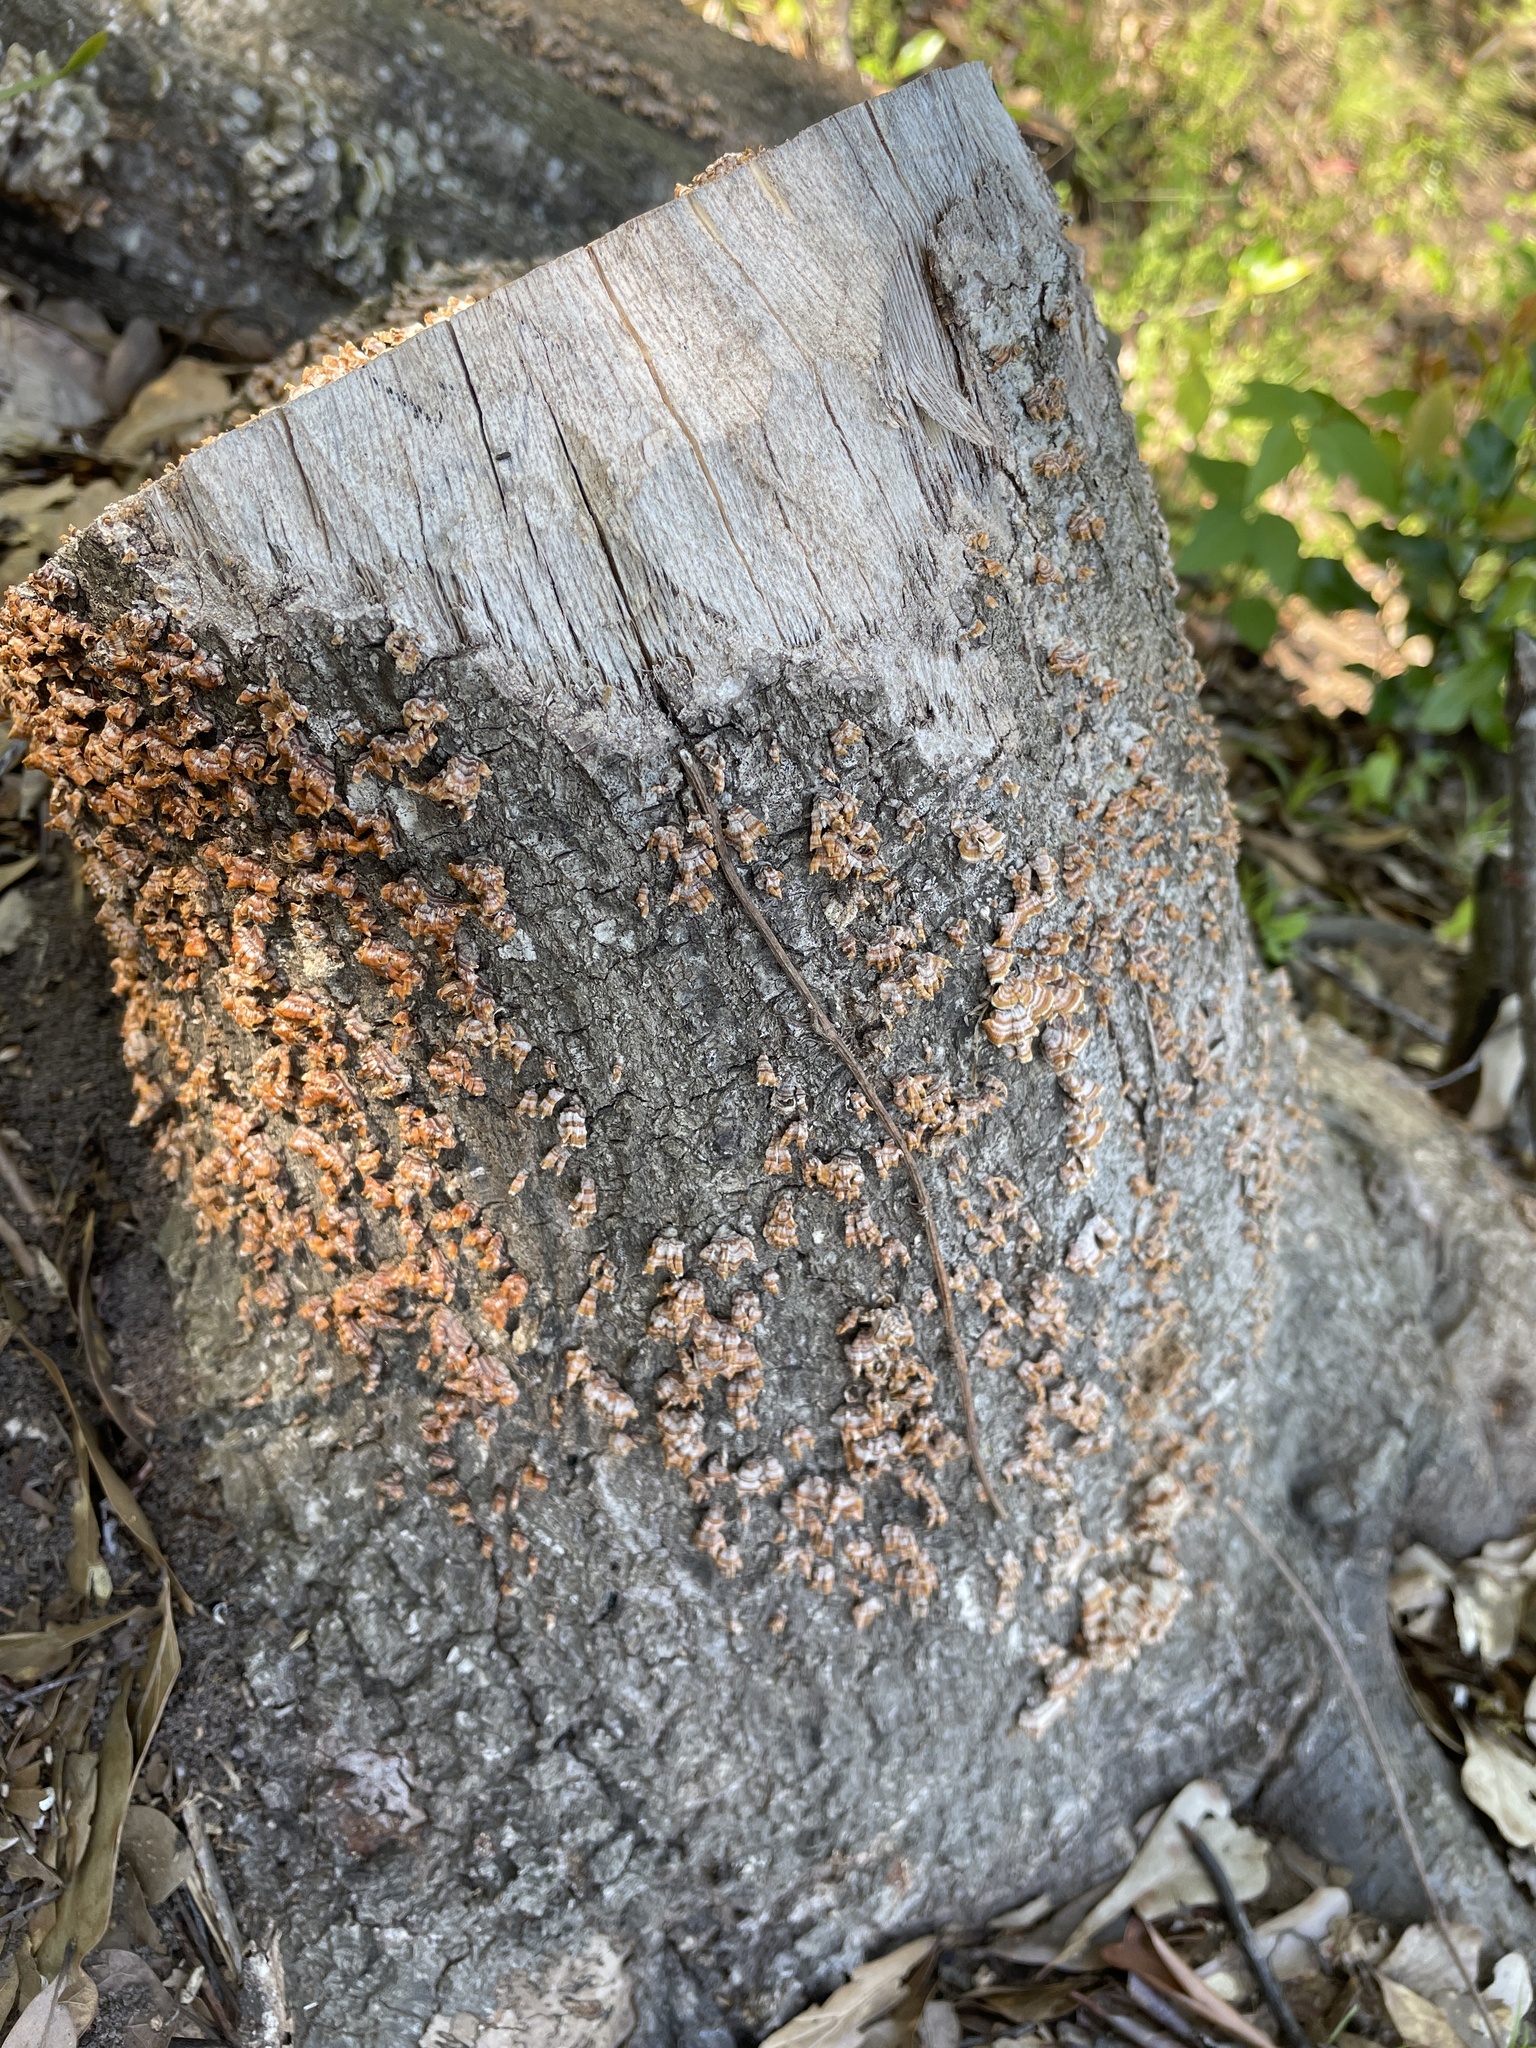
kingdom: Fungi
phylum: Basidiomycota
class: Agaricomycetes
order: Russulales
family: Stereaceae
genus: Stereum
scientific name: Stereum complicatum
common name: Crowded parchment
